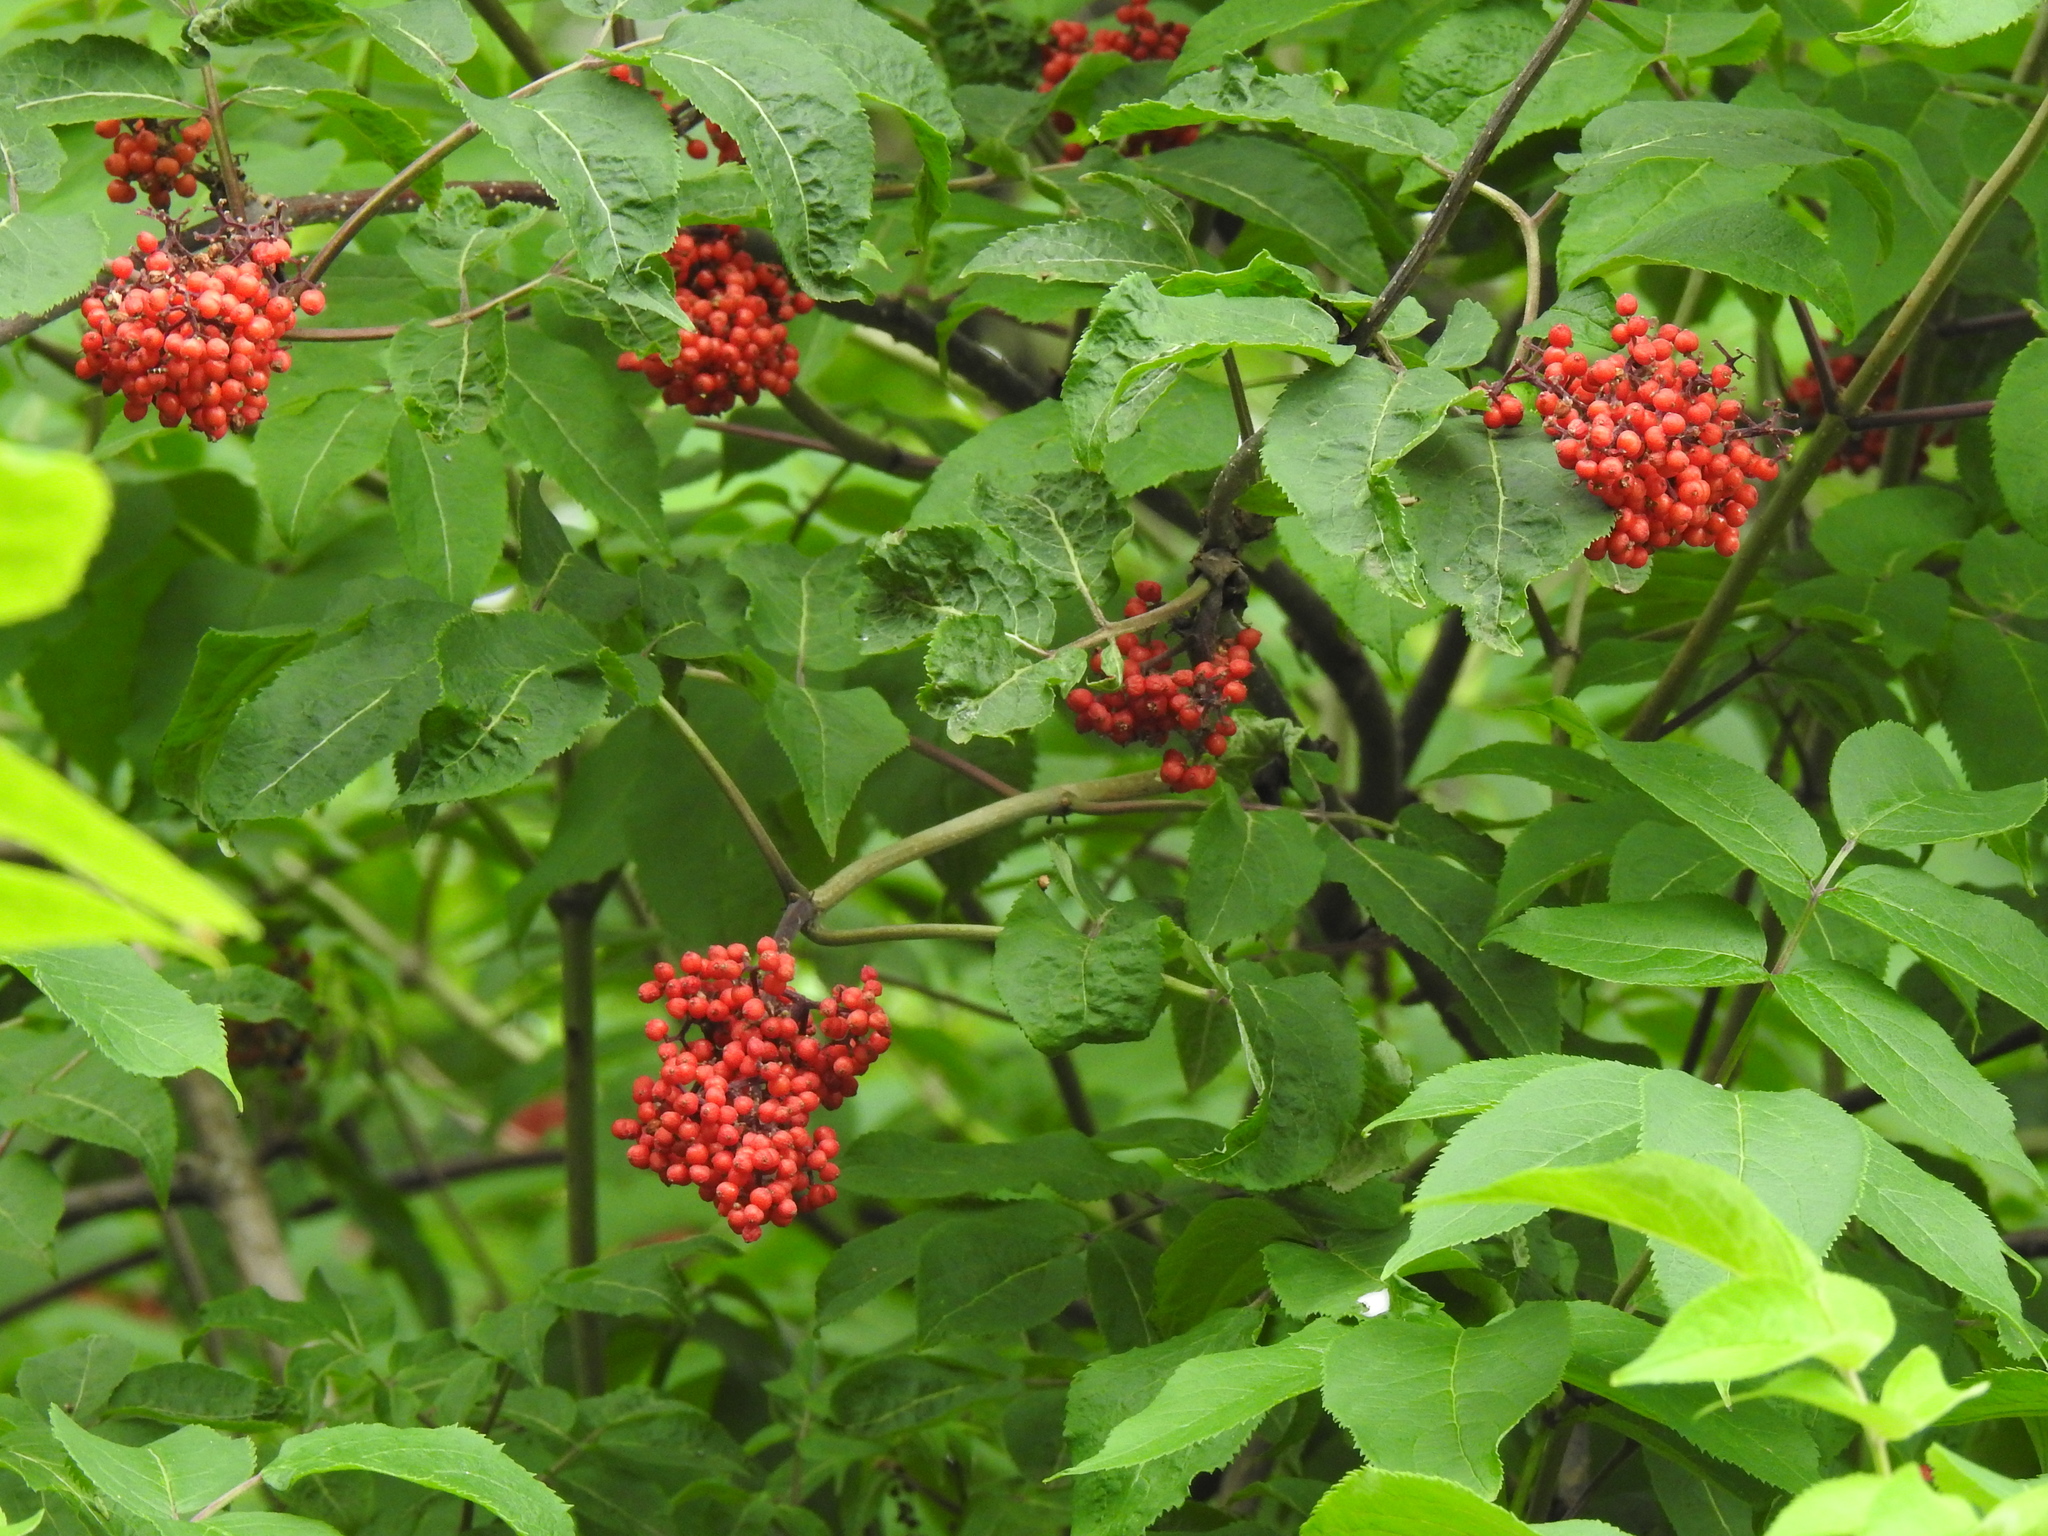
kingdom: Plantae
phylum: Tracheophyta
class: Magnoliopsida
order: Dipsacales
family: Viburnaceae
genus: Sambucus
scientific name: Sambucus racemosa
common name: Red-berried elder
